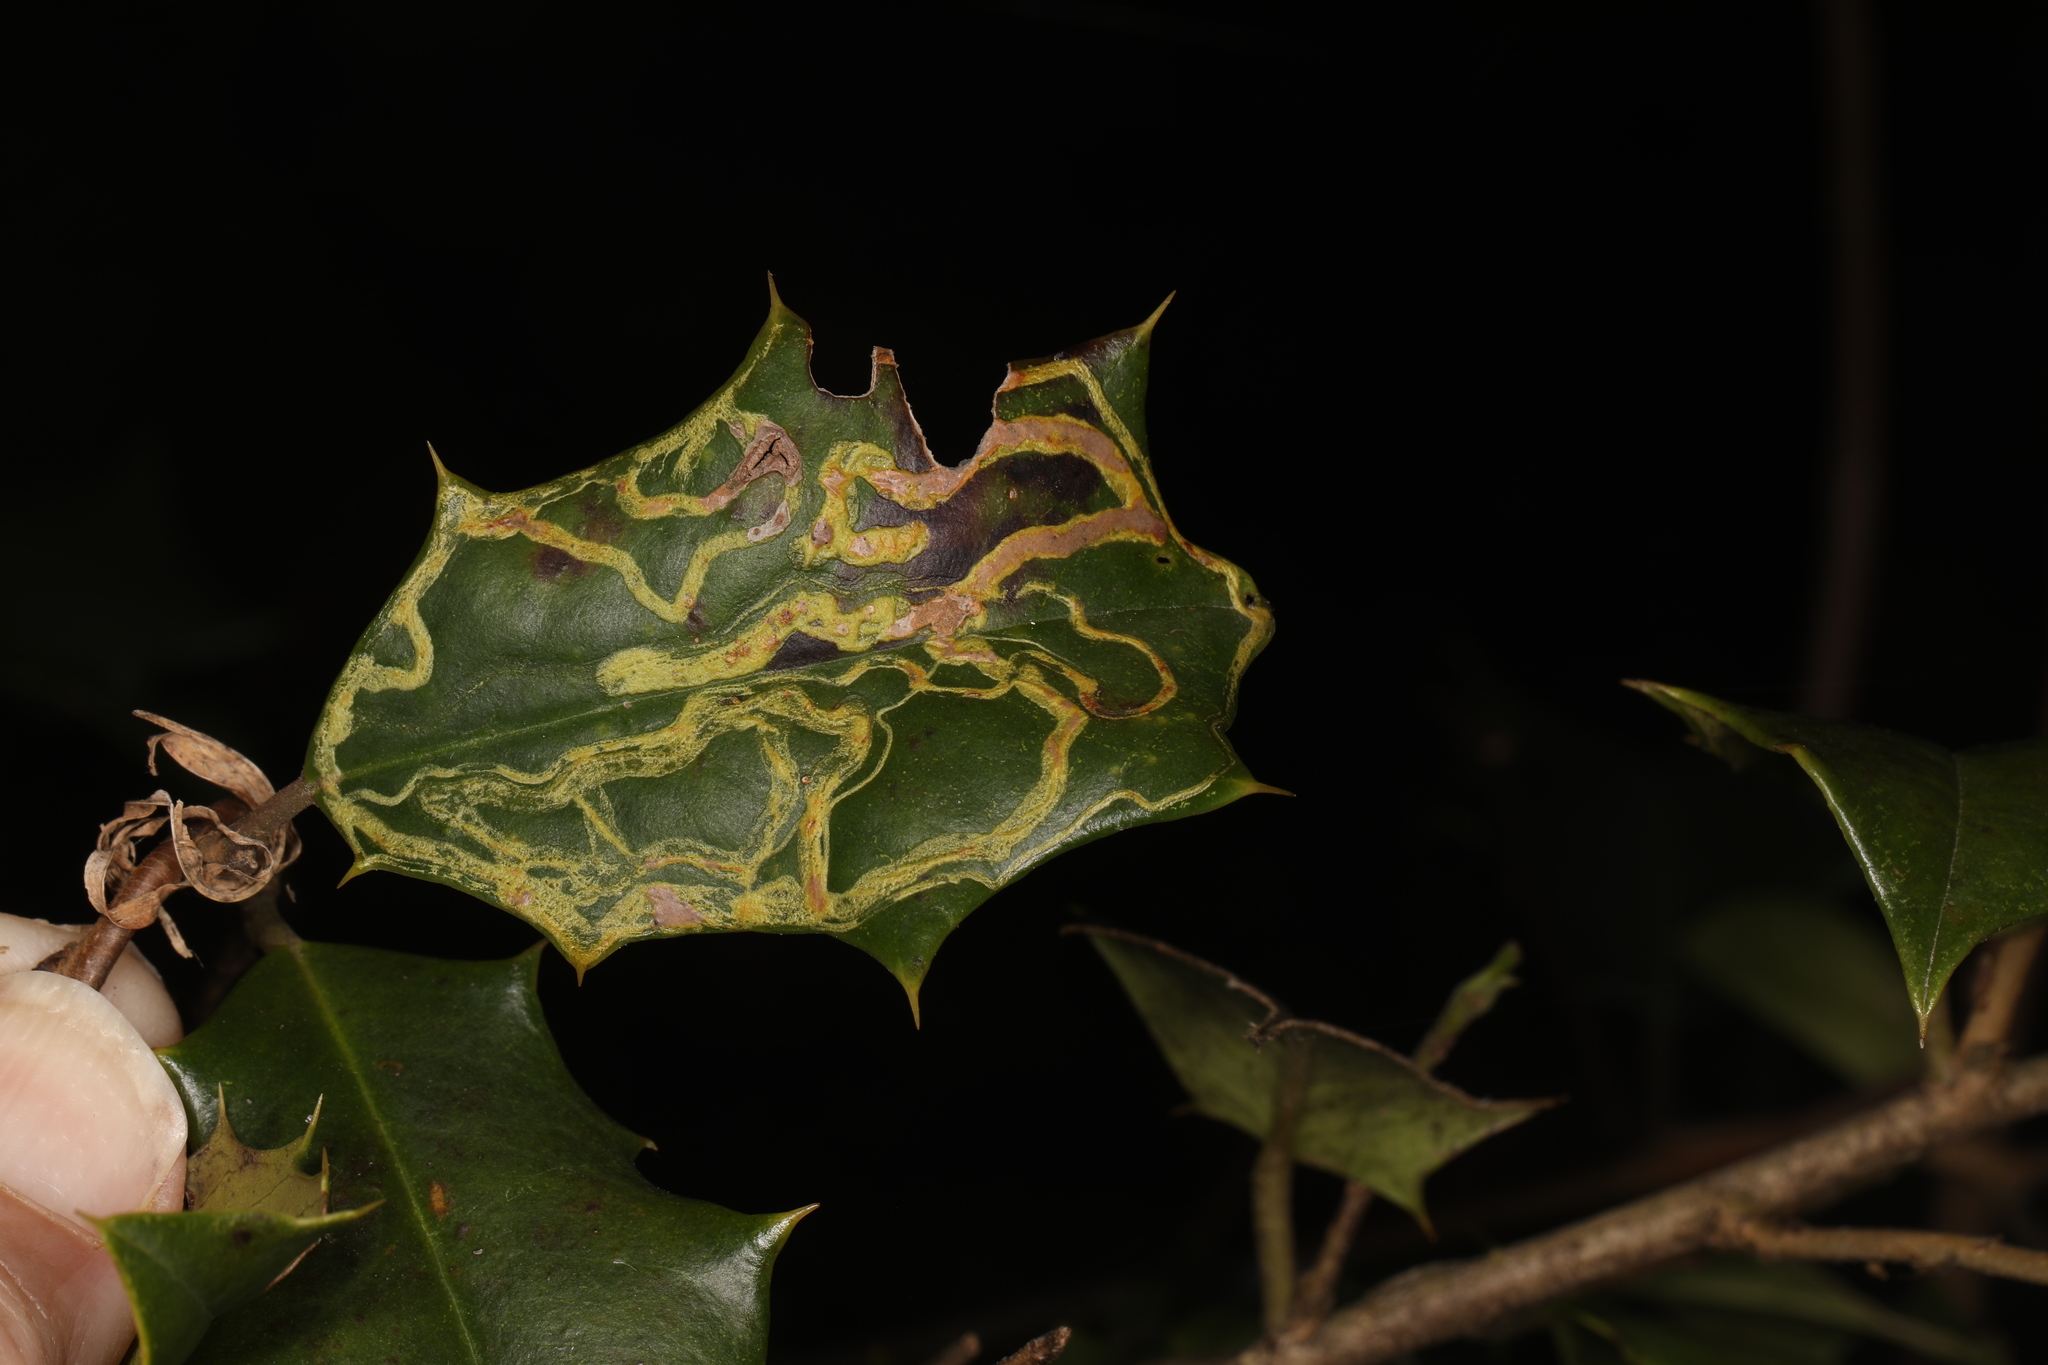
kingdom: Animalia
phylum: Arthropoda
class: Insecta
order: Diptera
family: Agromyzidae
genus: Phytomyza
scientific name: Phytomyza opacae
